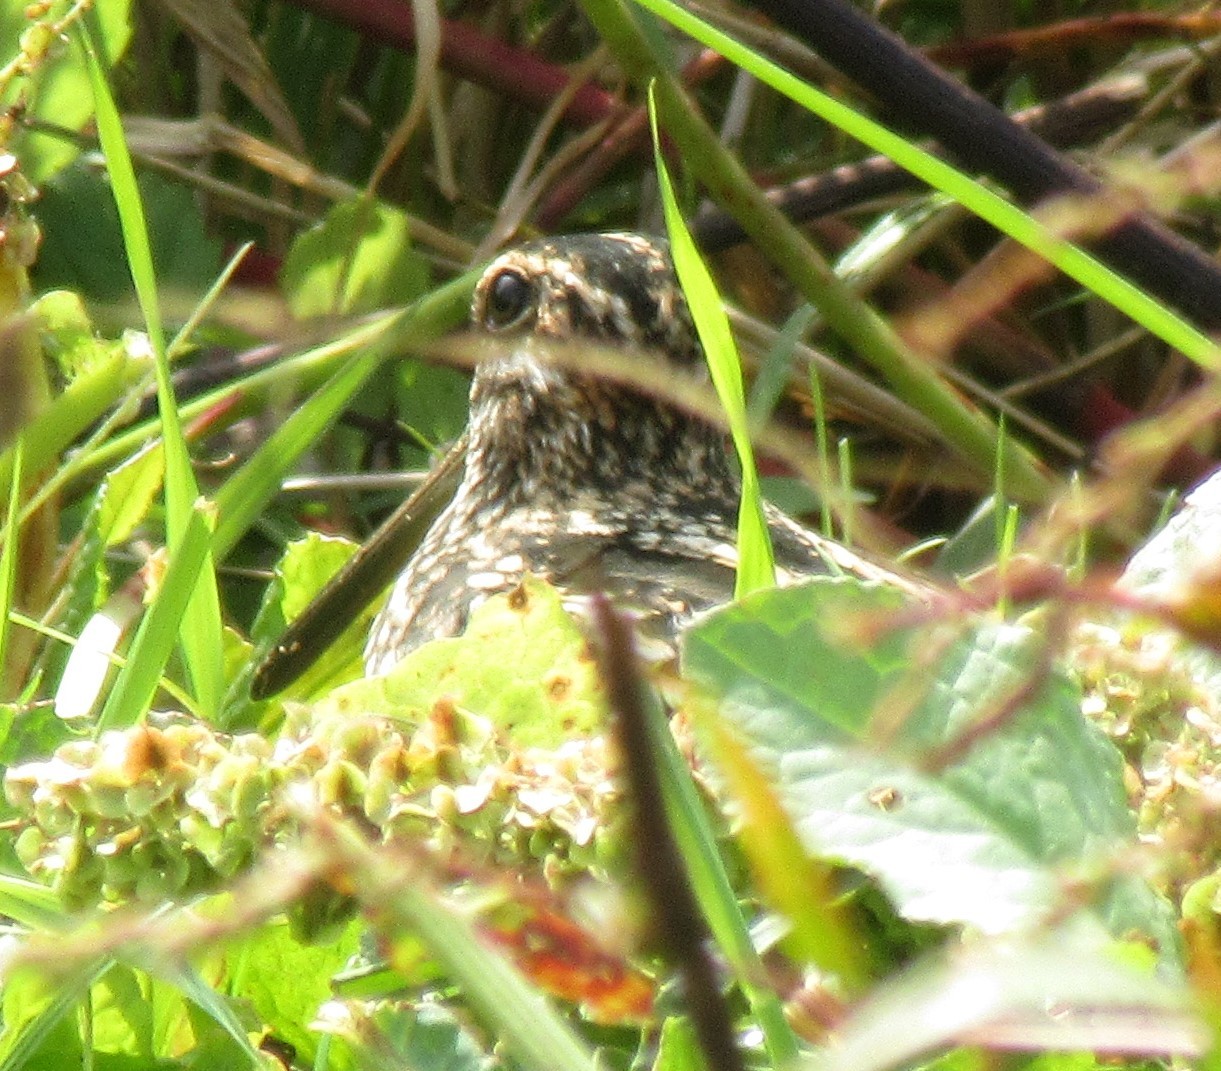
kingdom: Animalia
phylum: Chordata
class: Aves
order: Charadriiformes
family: Scolopacidae
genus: Gallinago
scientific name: Gallinago delicata
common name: Wilson's snipe
